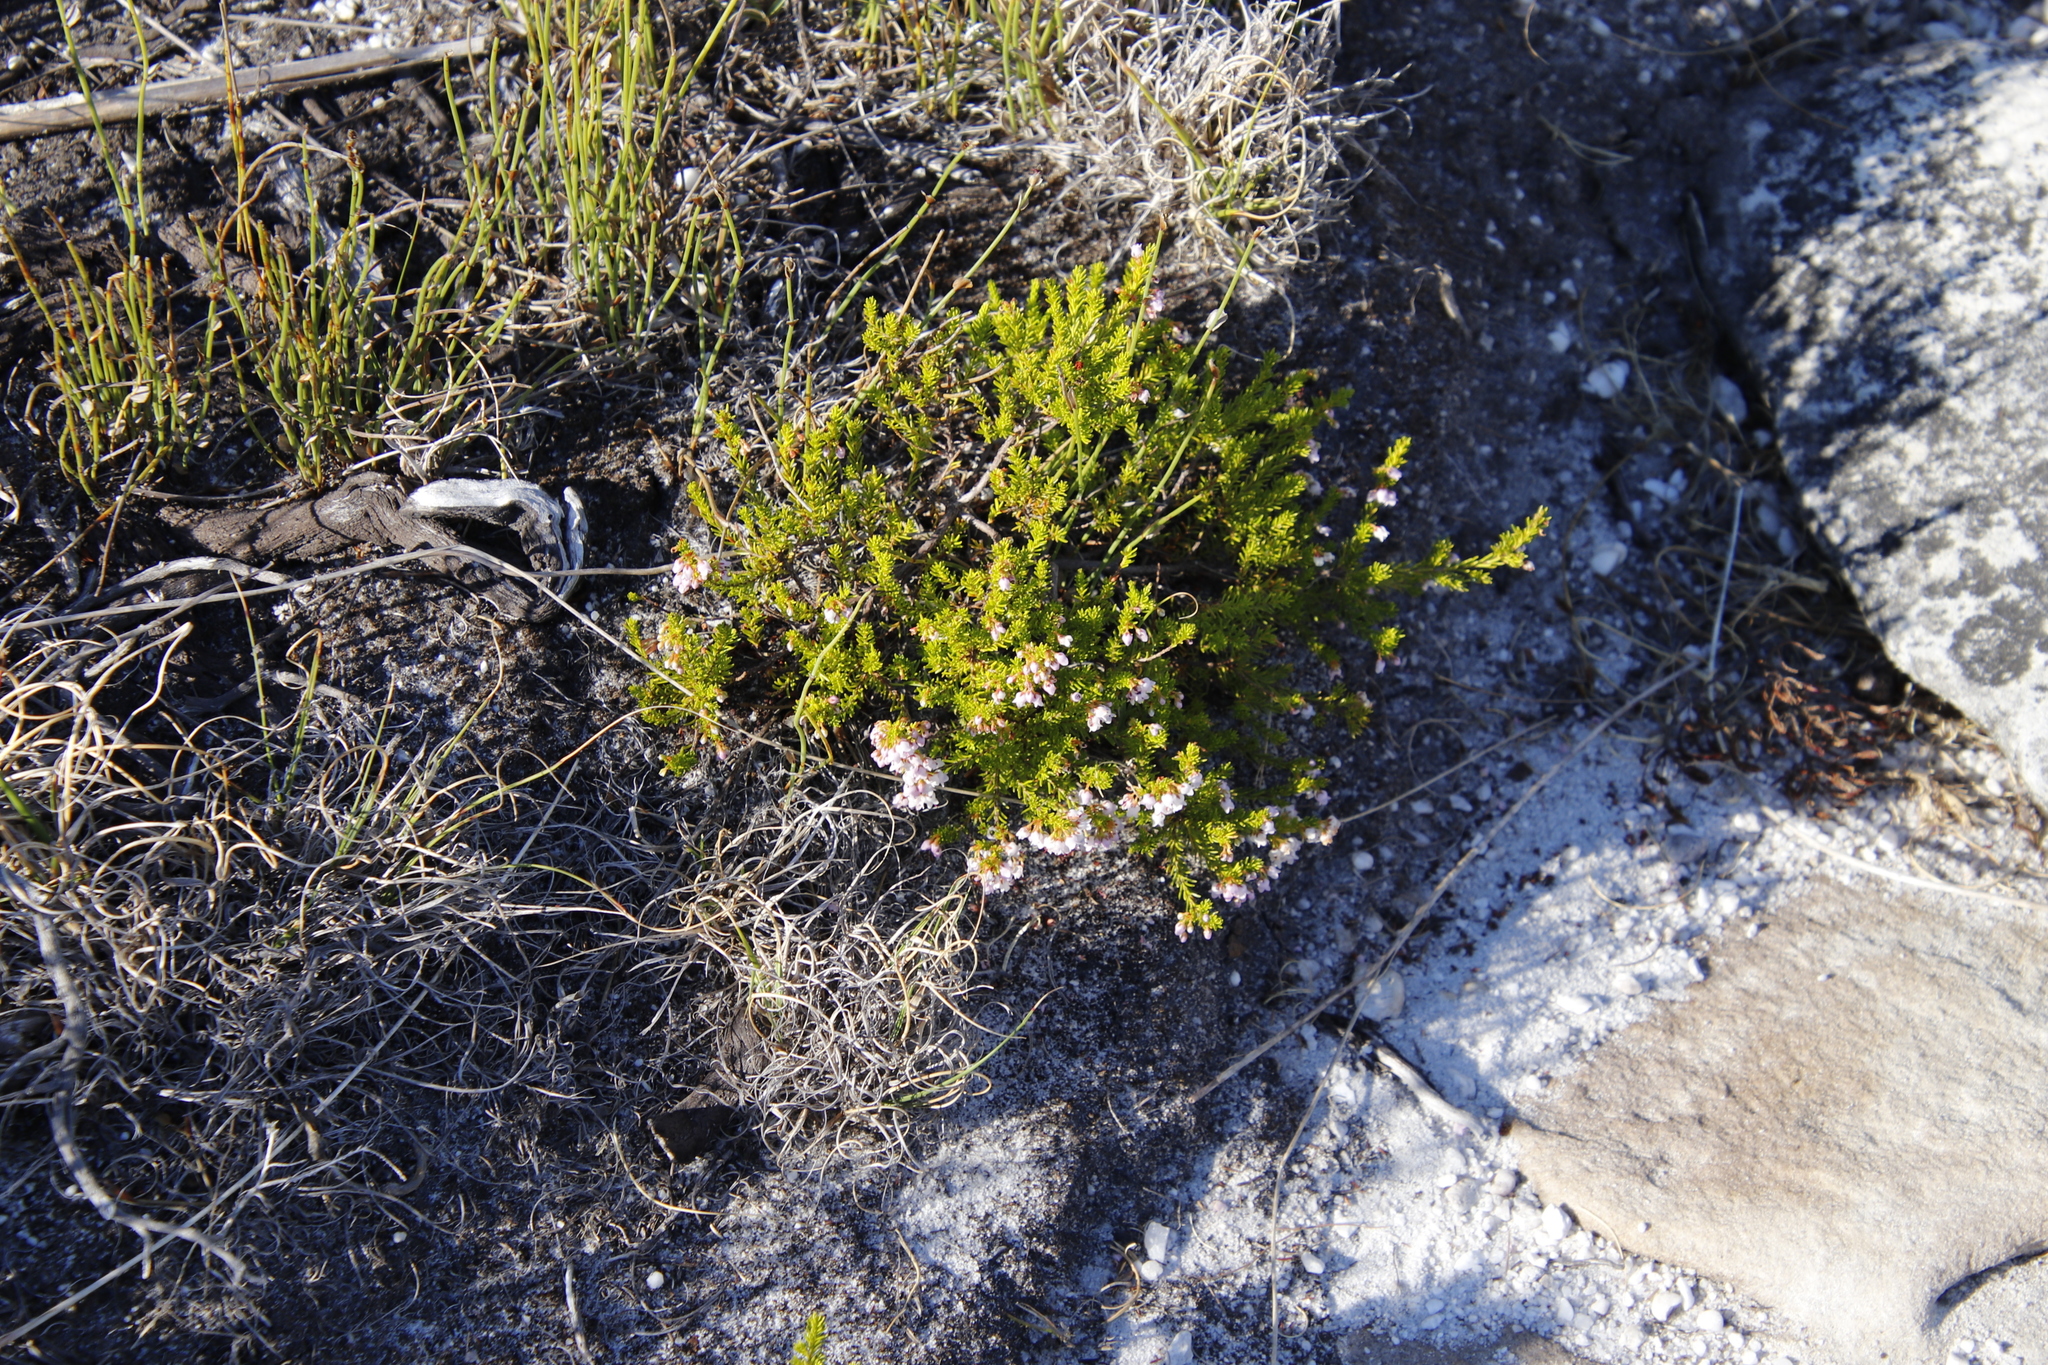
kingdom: Plantae
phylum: Tracheophyta
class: Magnoliopsida
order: Ericales
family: Ericaceae
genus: Erica
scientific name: Erica curvirostris
